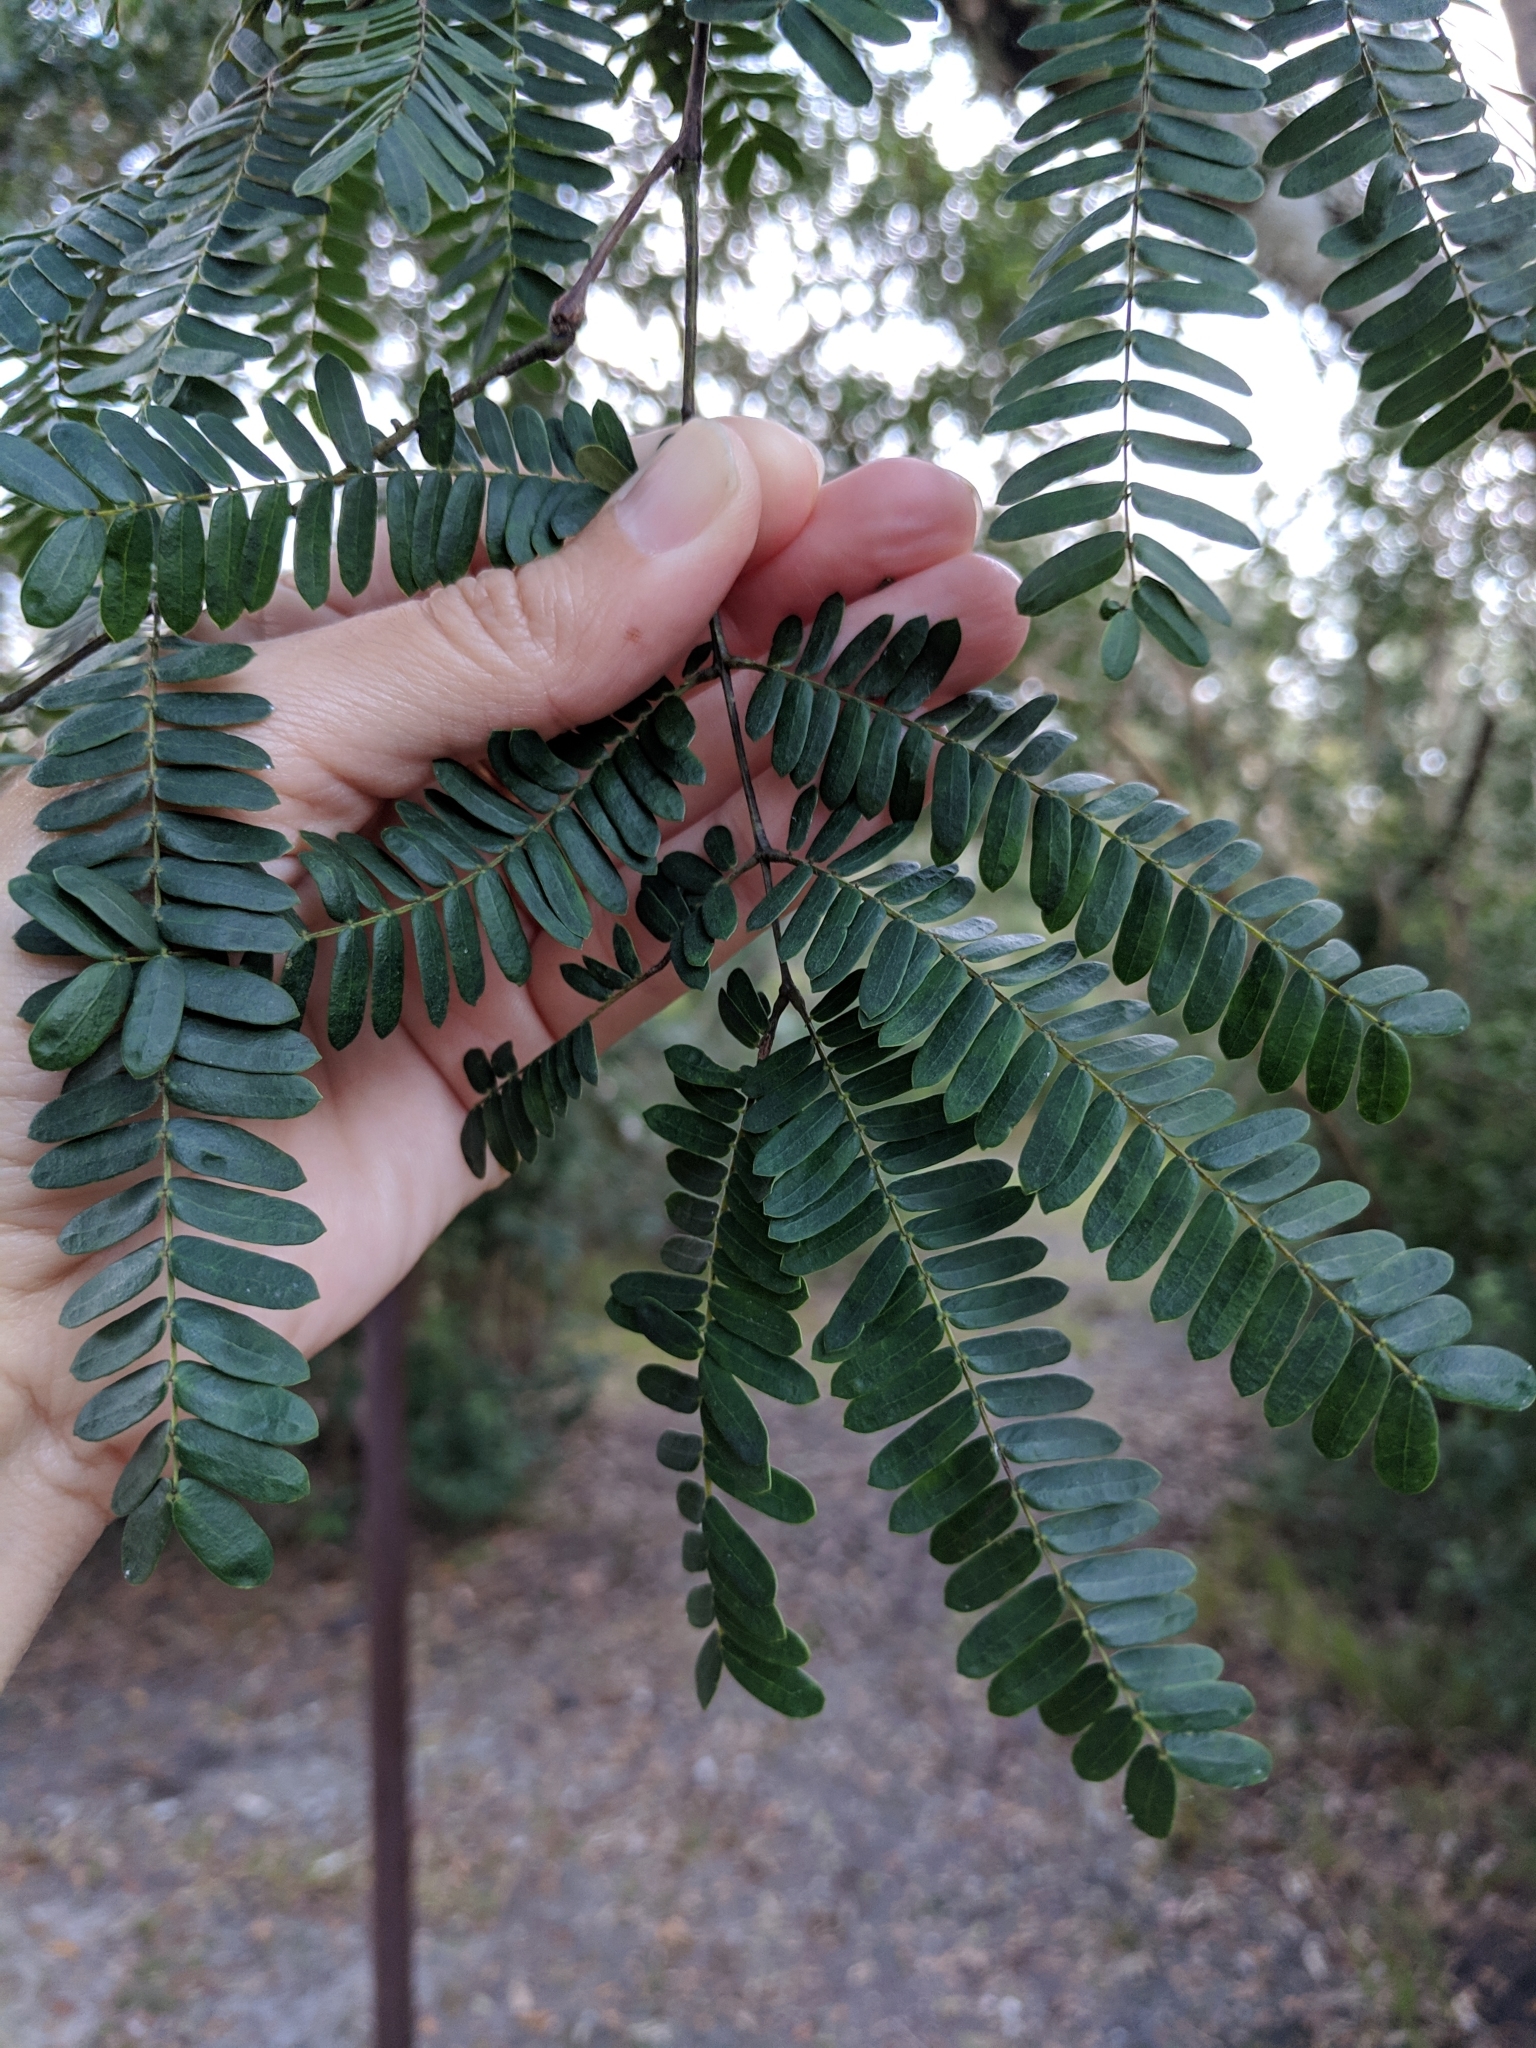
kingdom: Plantae
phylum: Tracheophyta
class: Magnoliopsida
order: Fabales
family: Fabaceae
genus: Lysiloma
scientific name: Lysiloma latisiliquum
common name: Wild tamarind
